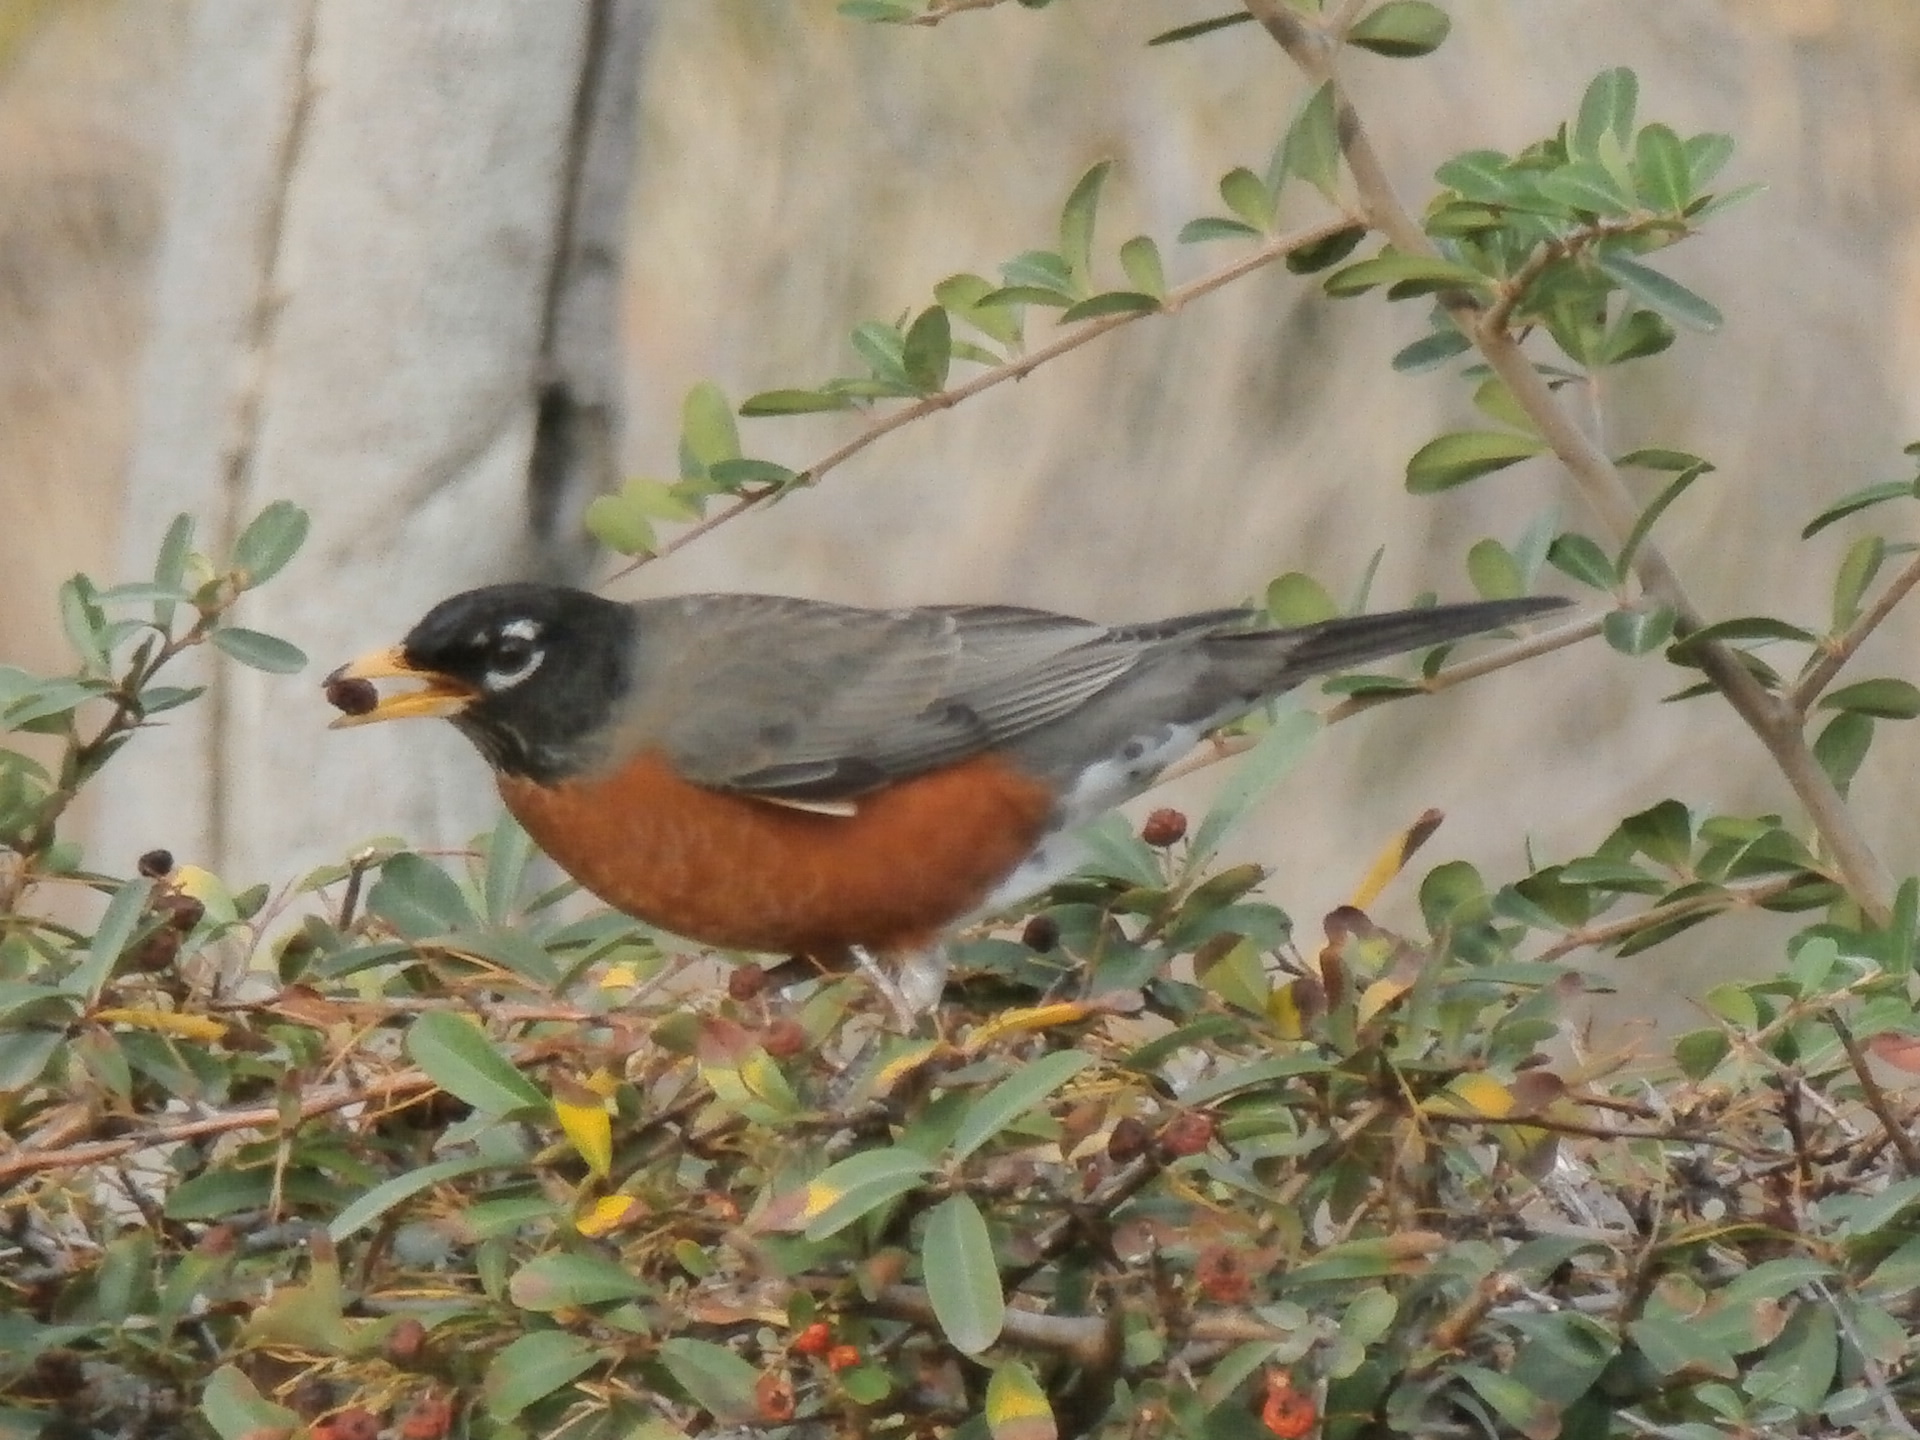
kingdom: Animalia
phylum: Chordata
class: Aves
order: Passeriformes
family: Turdidae
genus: Turdus
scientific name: Turdus migratorius
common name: American robin
